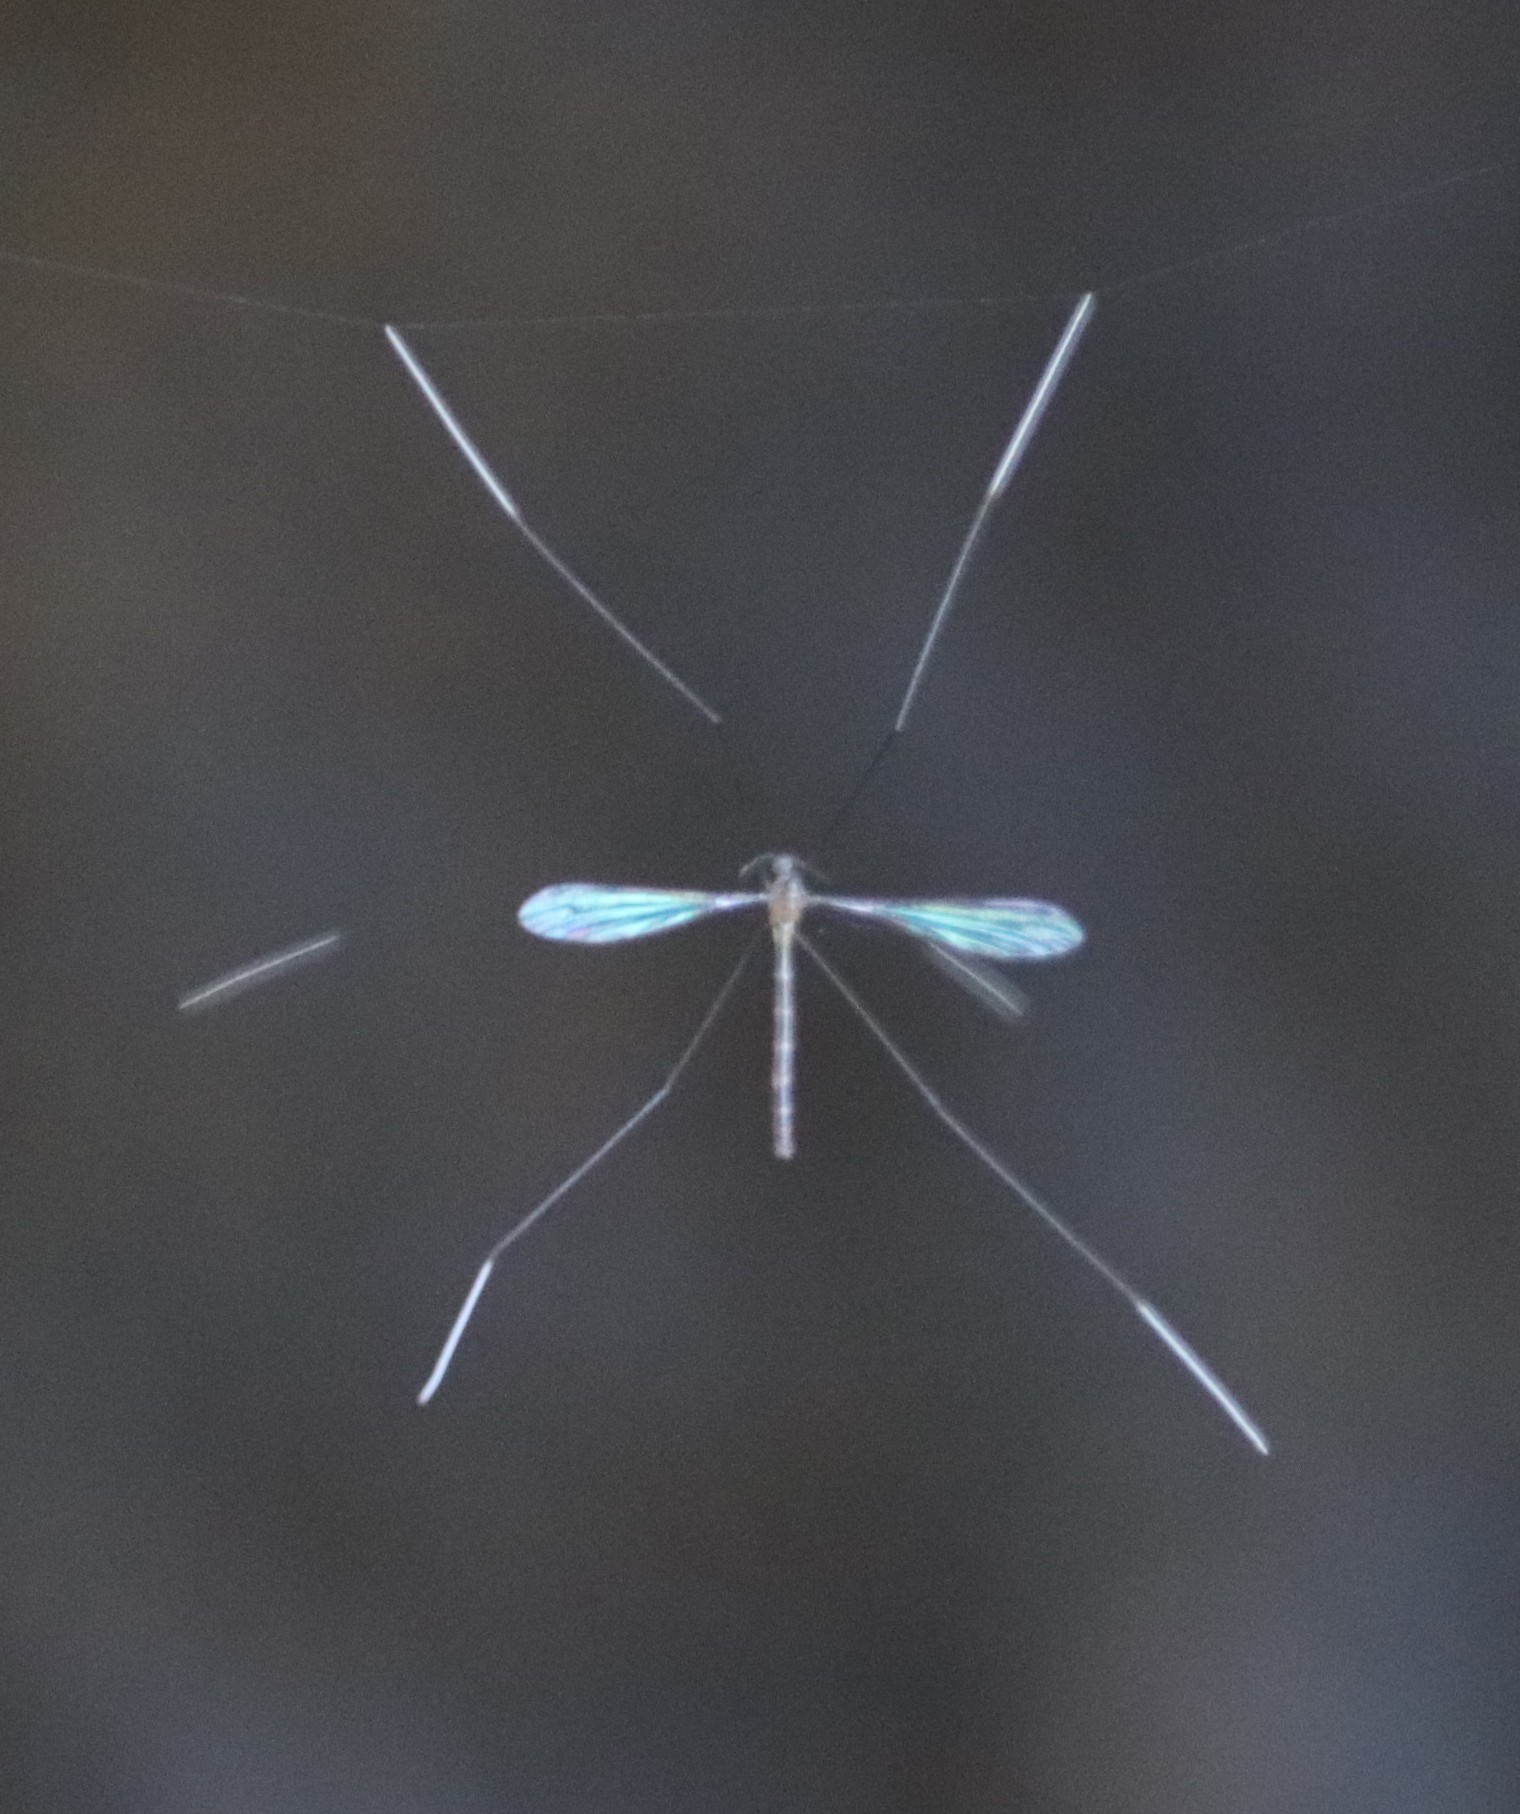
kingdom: Animalia
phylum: Arthropoda
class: Insecta
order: Diptera
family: Limoniidae
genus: Thrypticomyia
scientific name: Thrypticomyia nigeriensis
